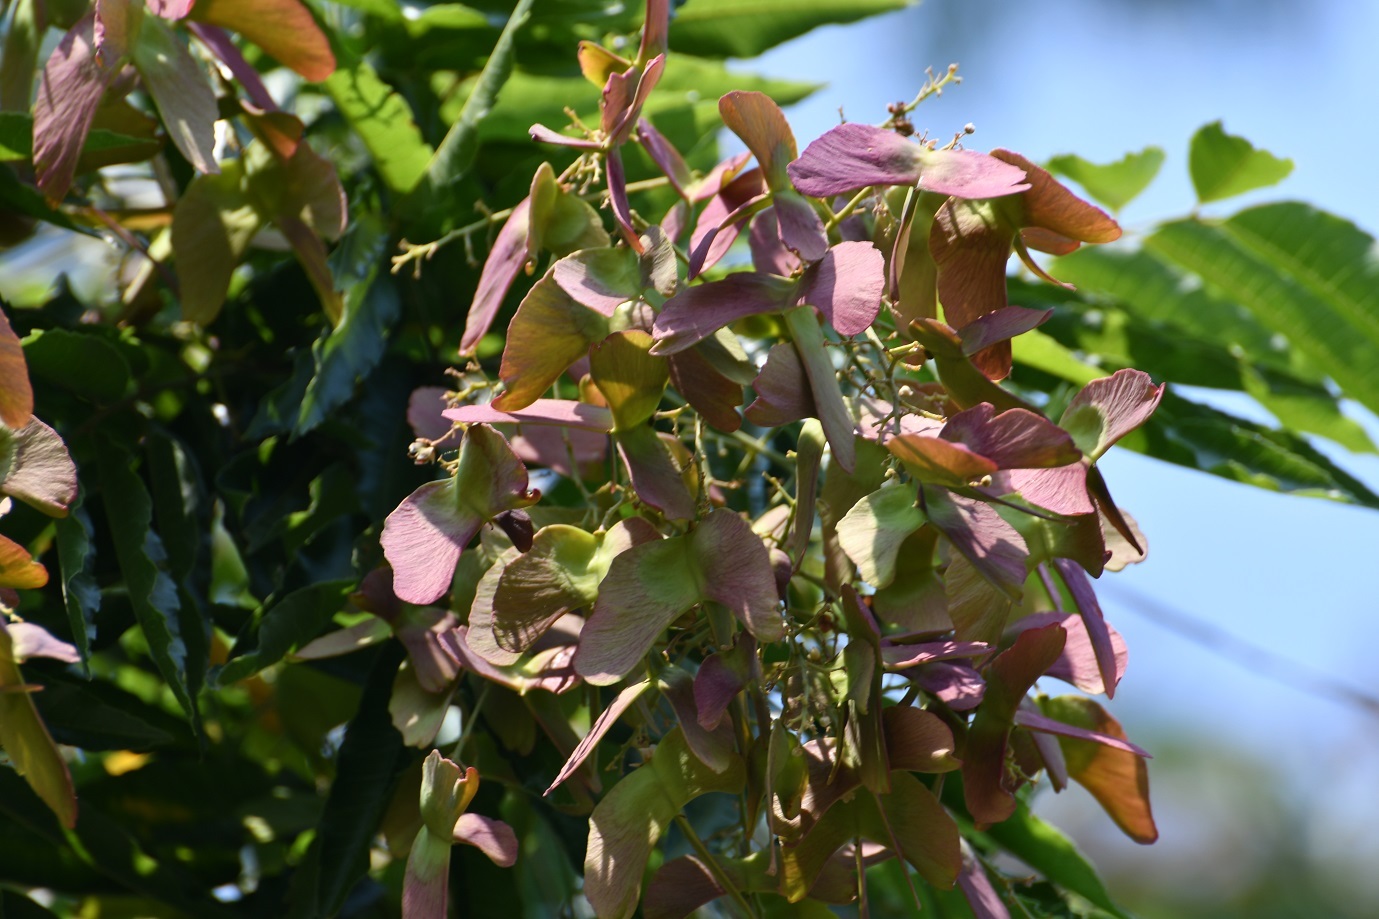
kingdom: Plantae
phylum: Tracheophyta
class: Magnoliopsida
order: Sapindales
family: Sapindaceae
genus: Thouinidium
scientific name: Thouinidium decandrum
